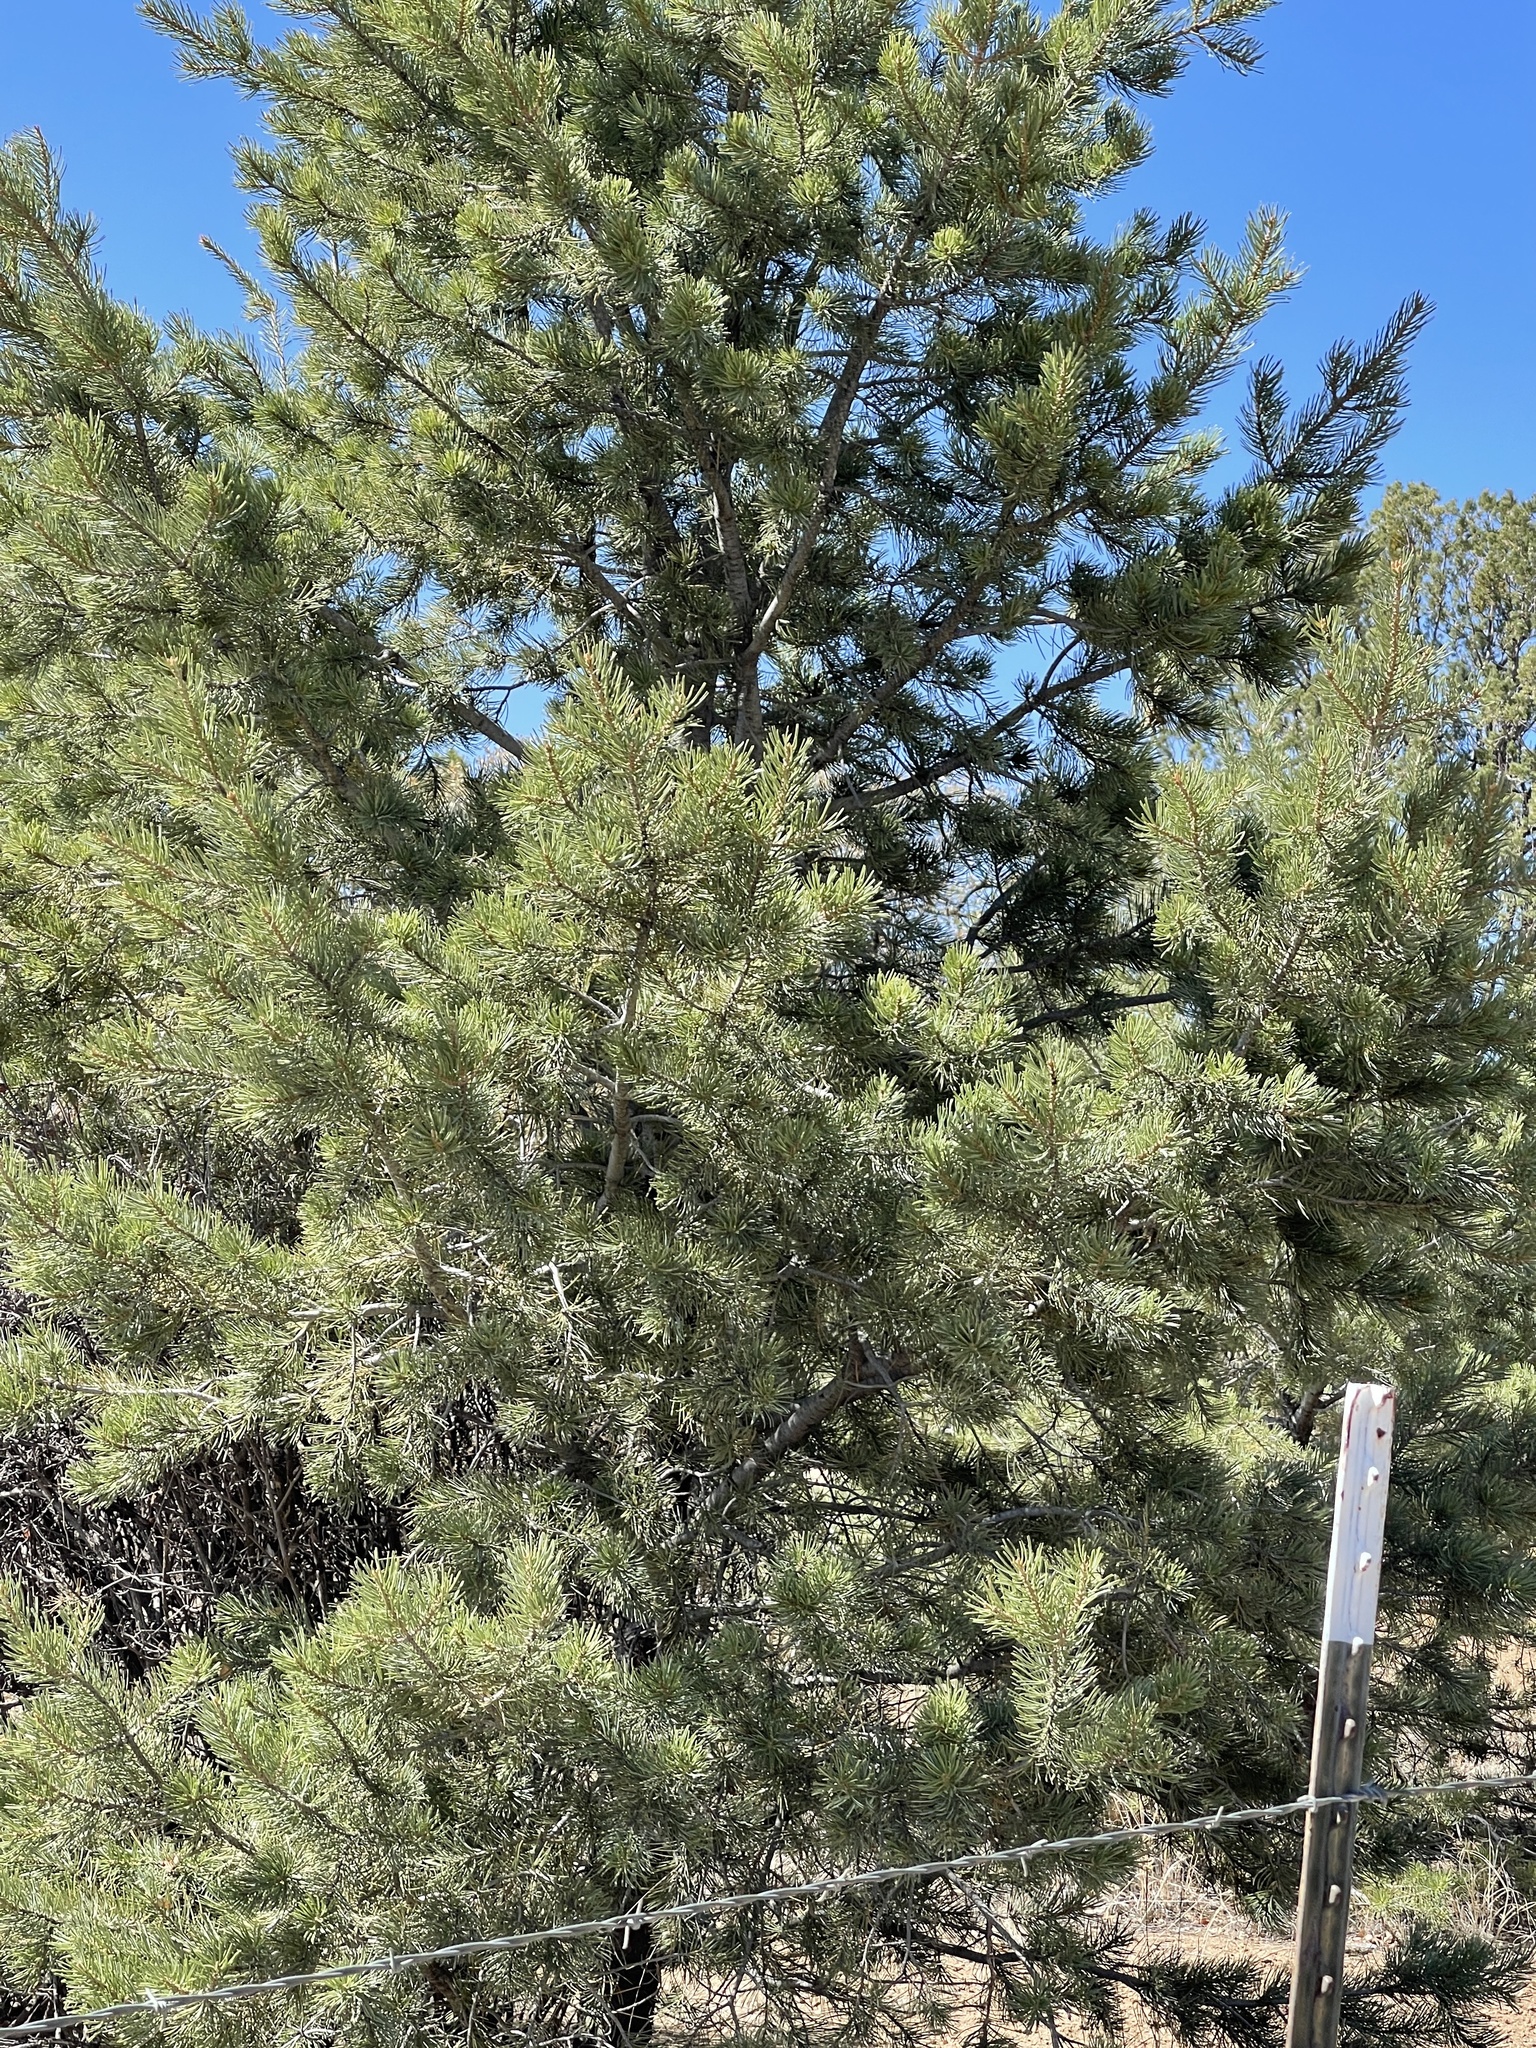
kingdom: Plantae
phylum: Tracheophyta
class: Pinopsida
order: Pinales
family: Pinaceae
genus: Pinus
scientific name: Pinus edulis
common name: Colorado pinyon
